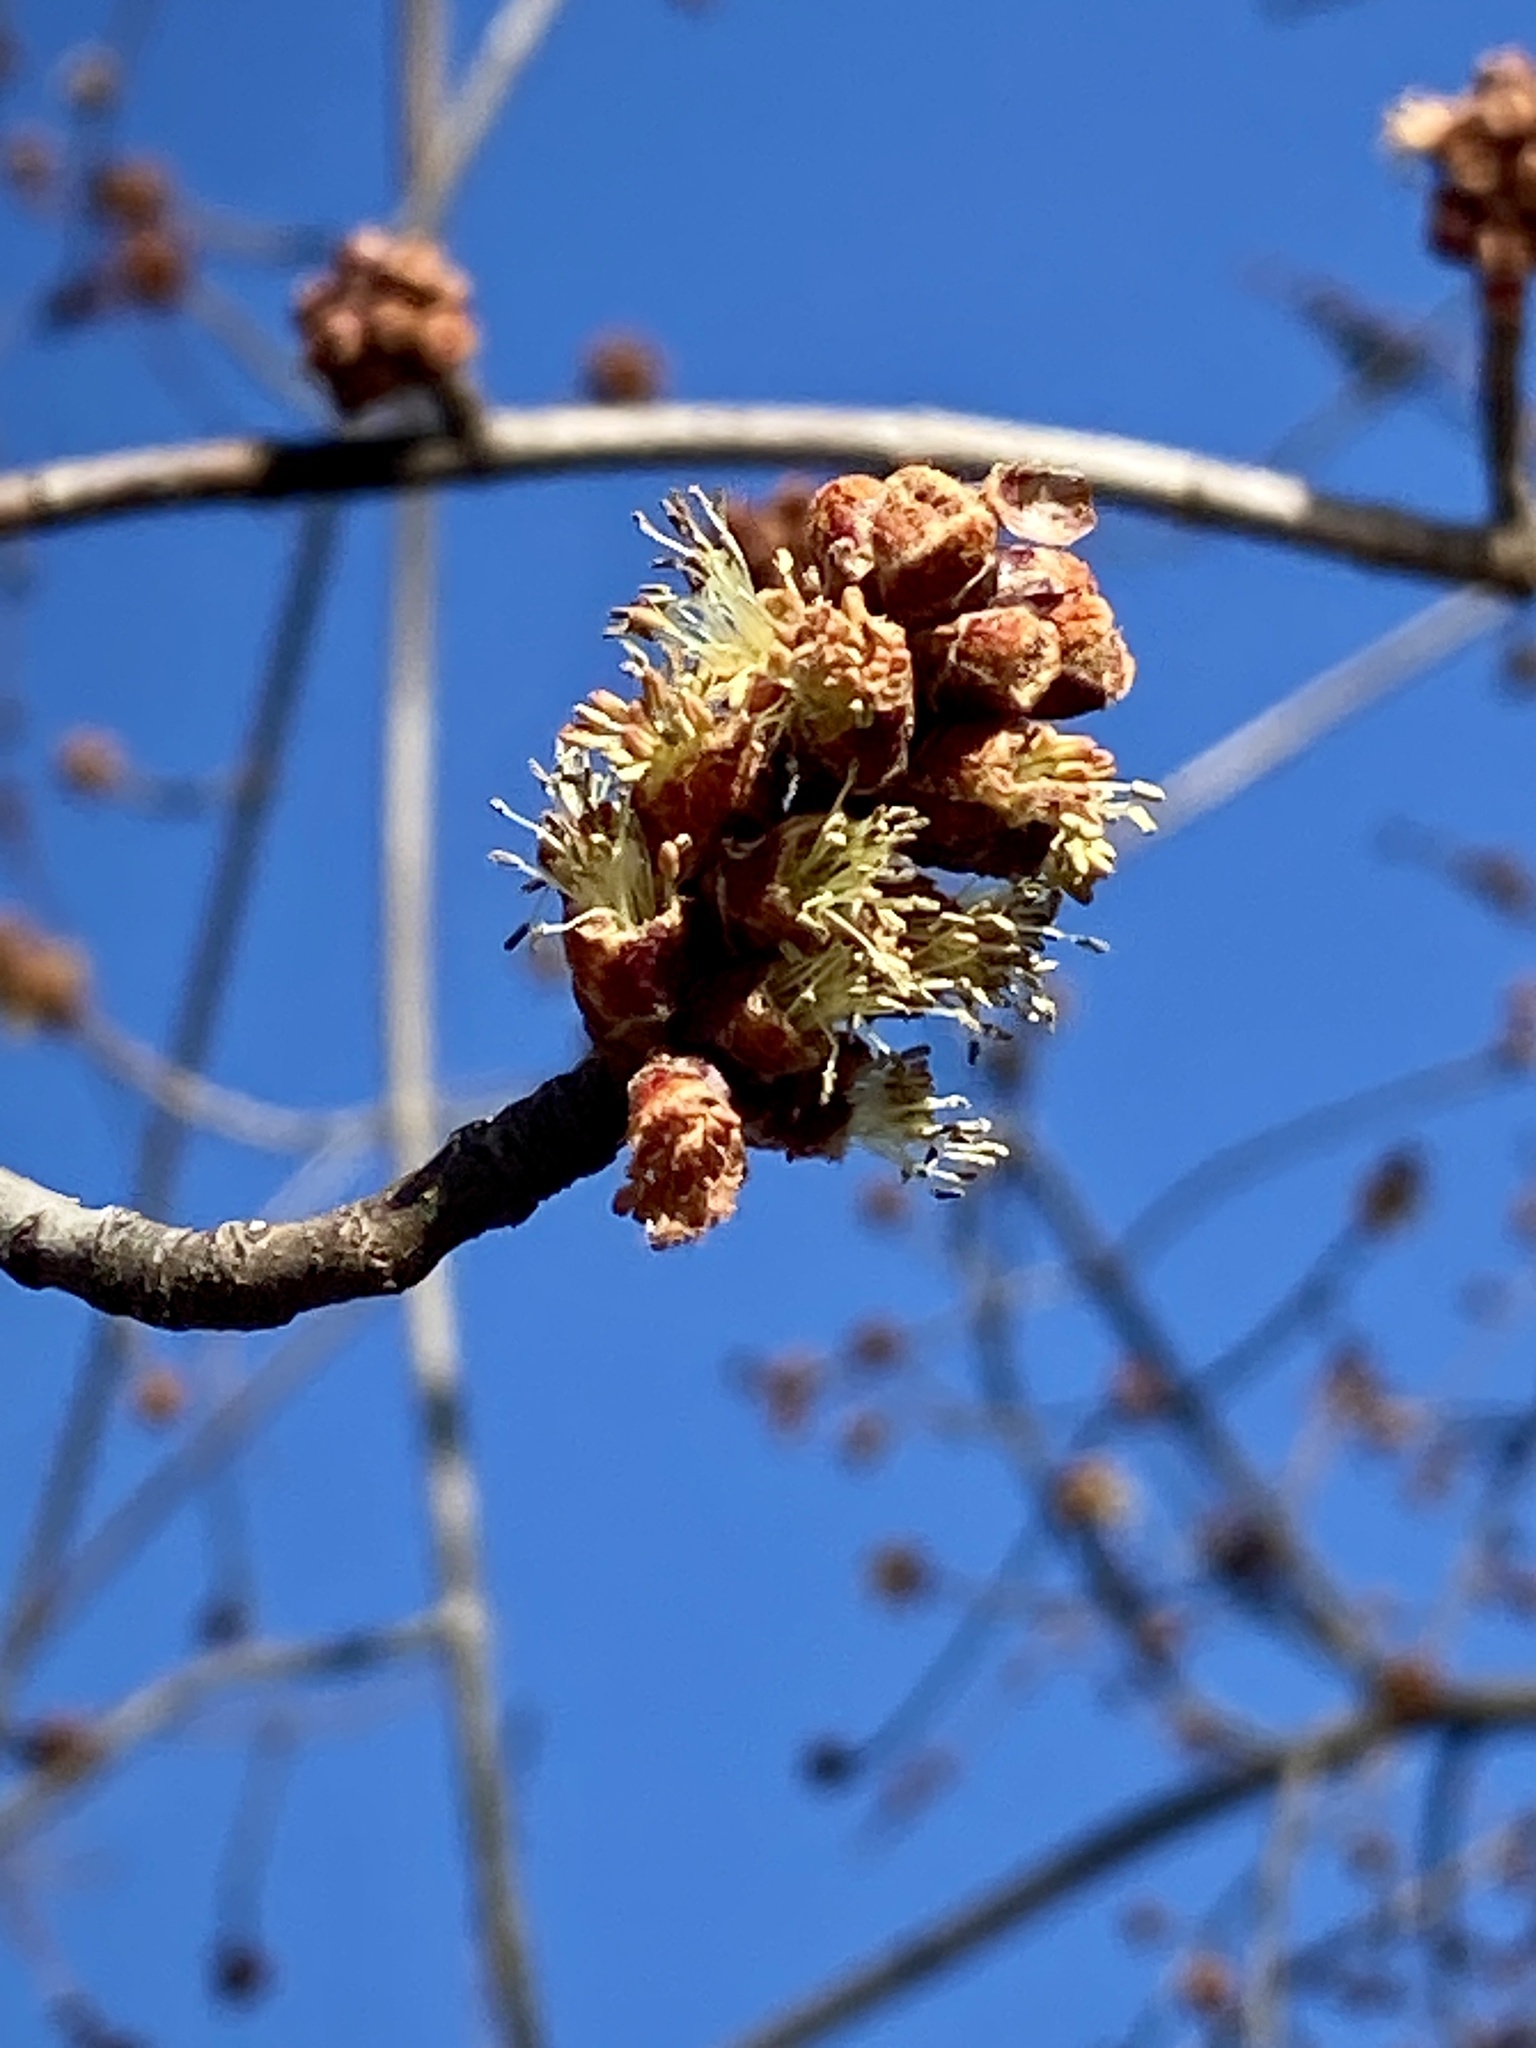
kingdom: Plantae
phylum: Tracheophyta
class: Magnoliopsida
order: Sapindales
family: Sapindaceae
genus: Acer
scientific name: Acer saccharinum
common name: Silver maple
